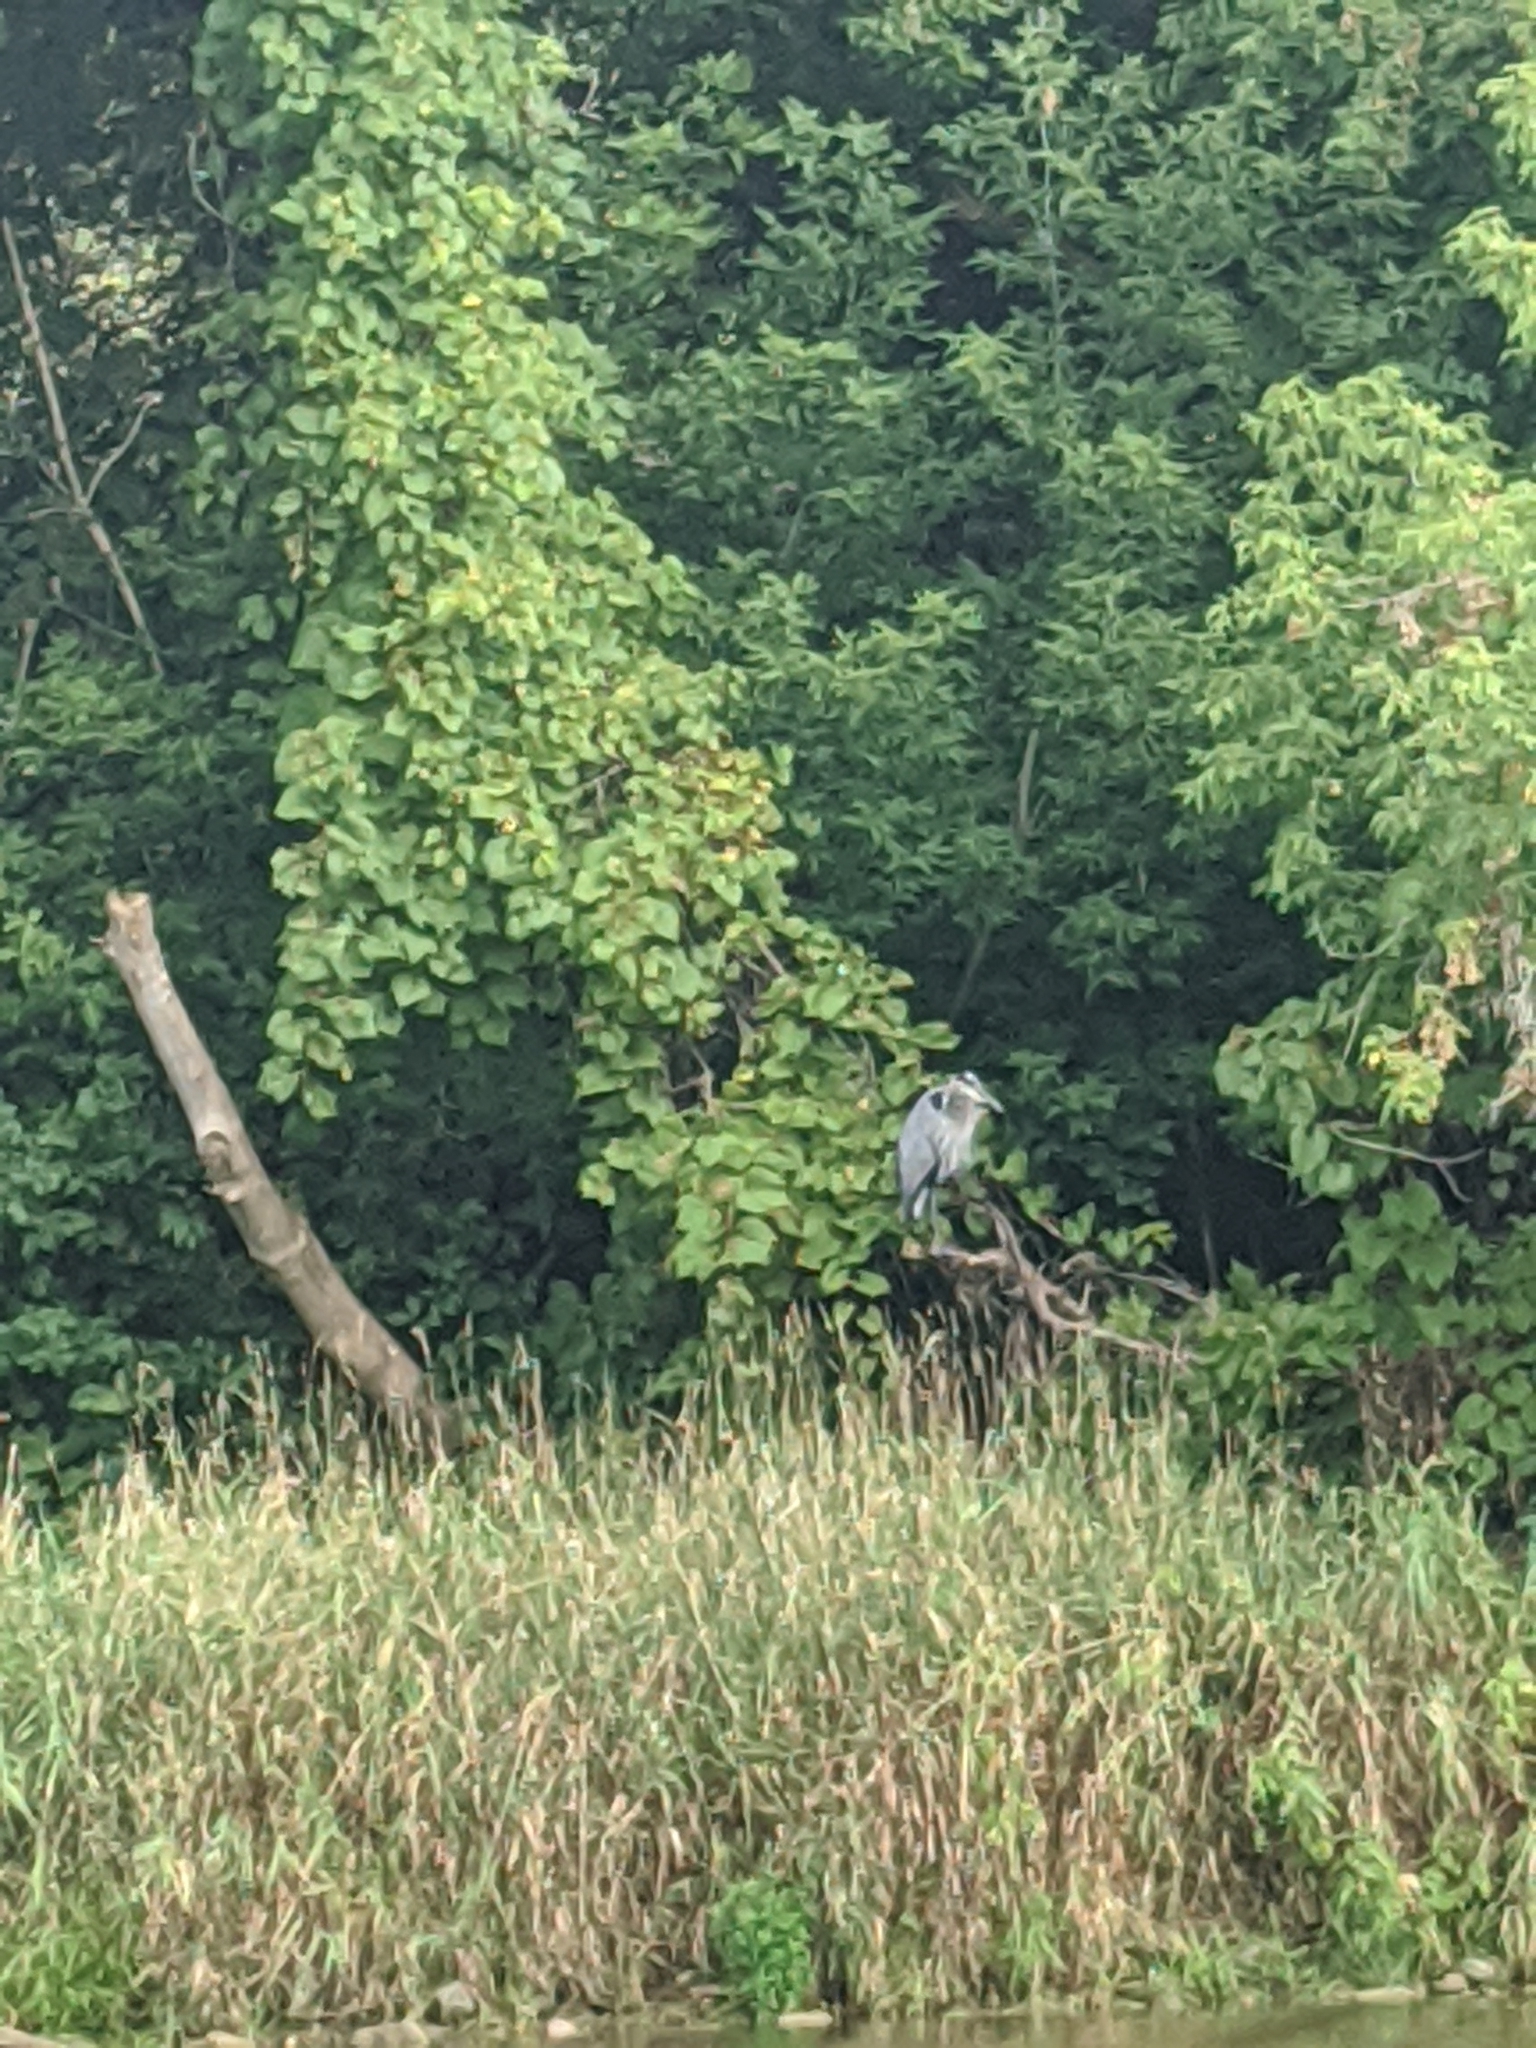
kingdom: Animalia
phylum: Chordata
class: Aves
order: Pelecaniformes
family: Ardeidae
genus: Ardea
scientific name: Ardea herodias
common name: Great blue heron
